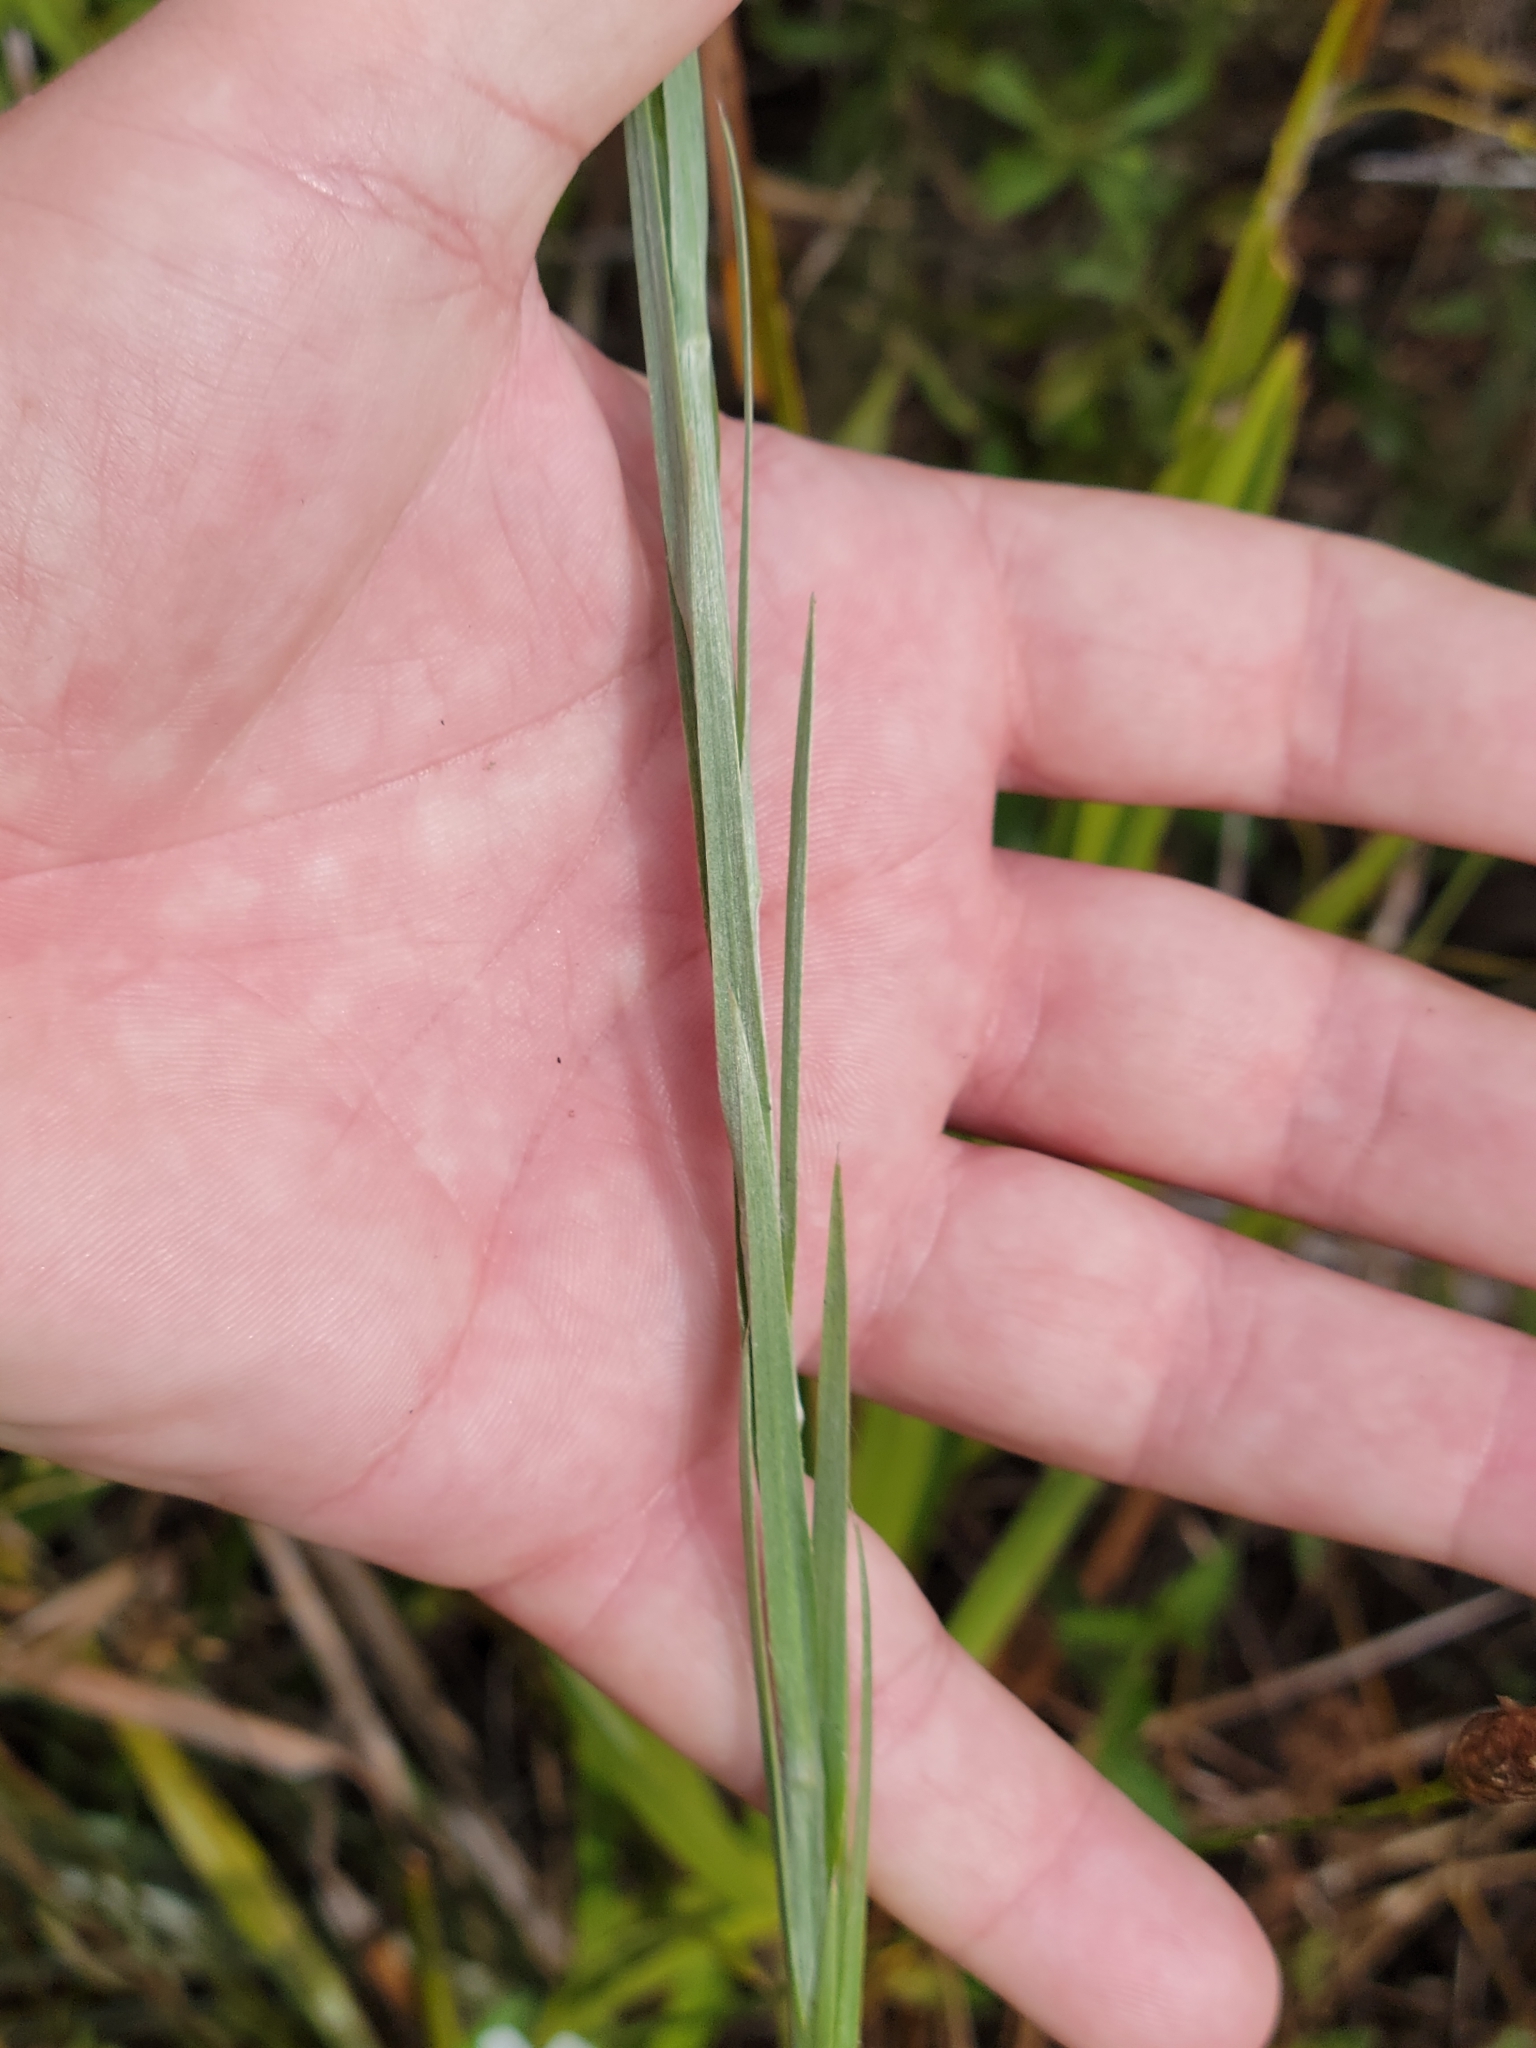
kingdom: Plantae
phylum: Tracheophyta
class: Magnoliopsida
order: Asterales
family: Asteraceae
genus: Pityopsis
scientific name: Pityopsis tracyi
